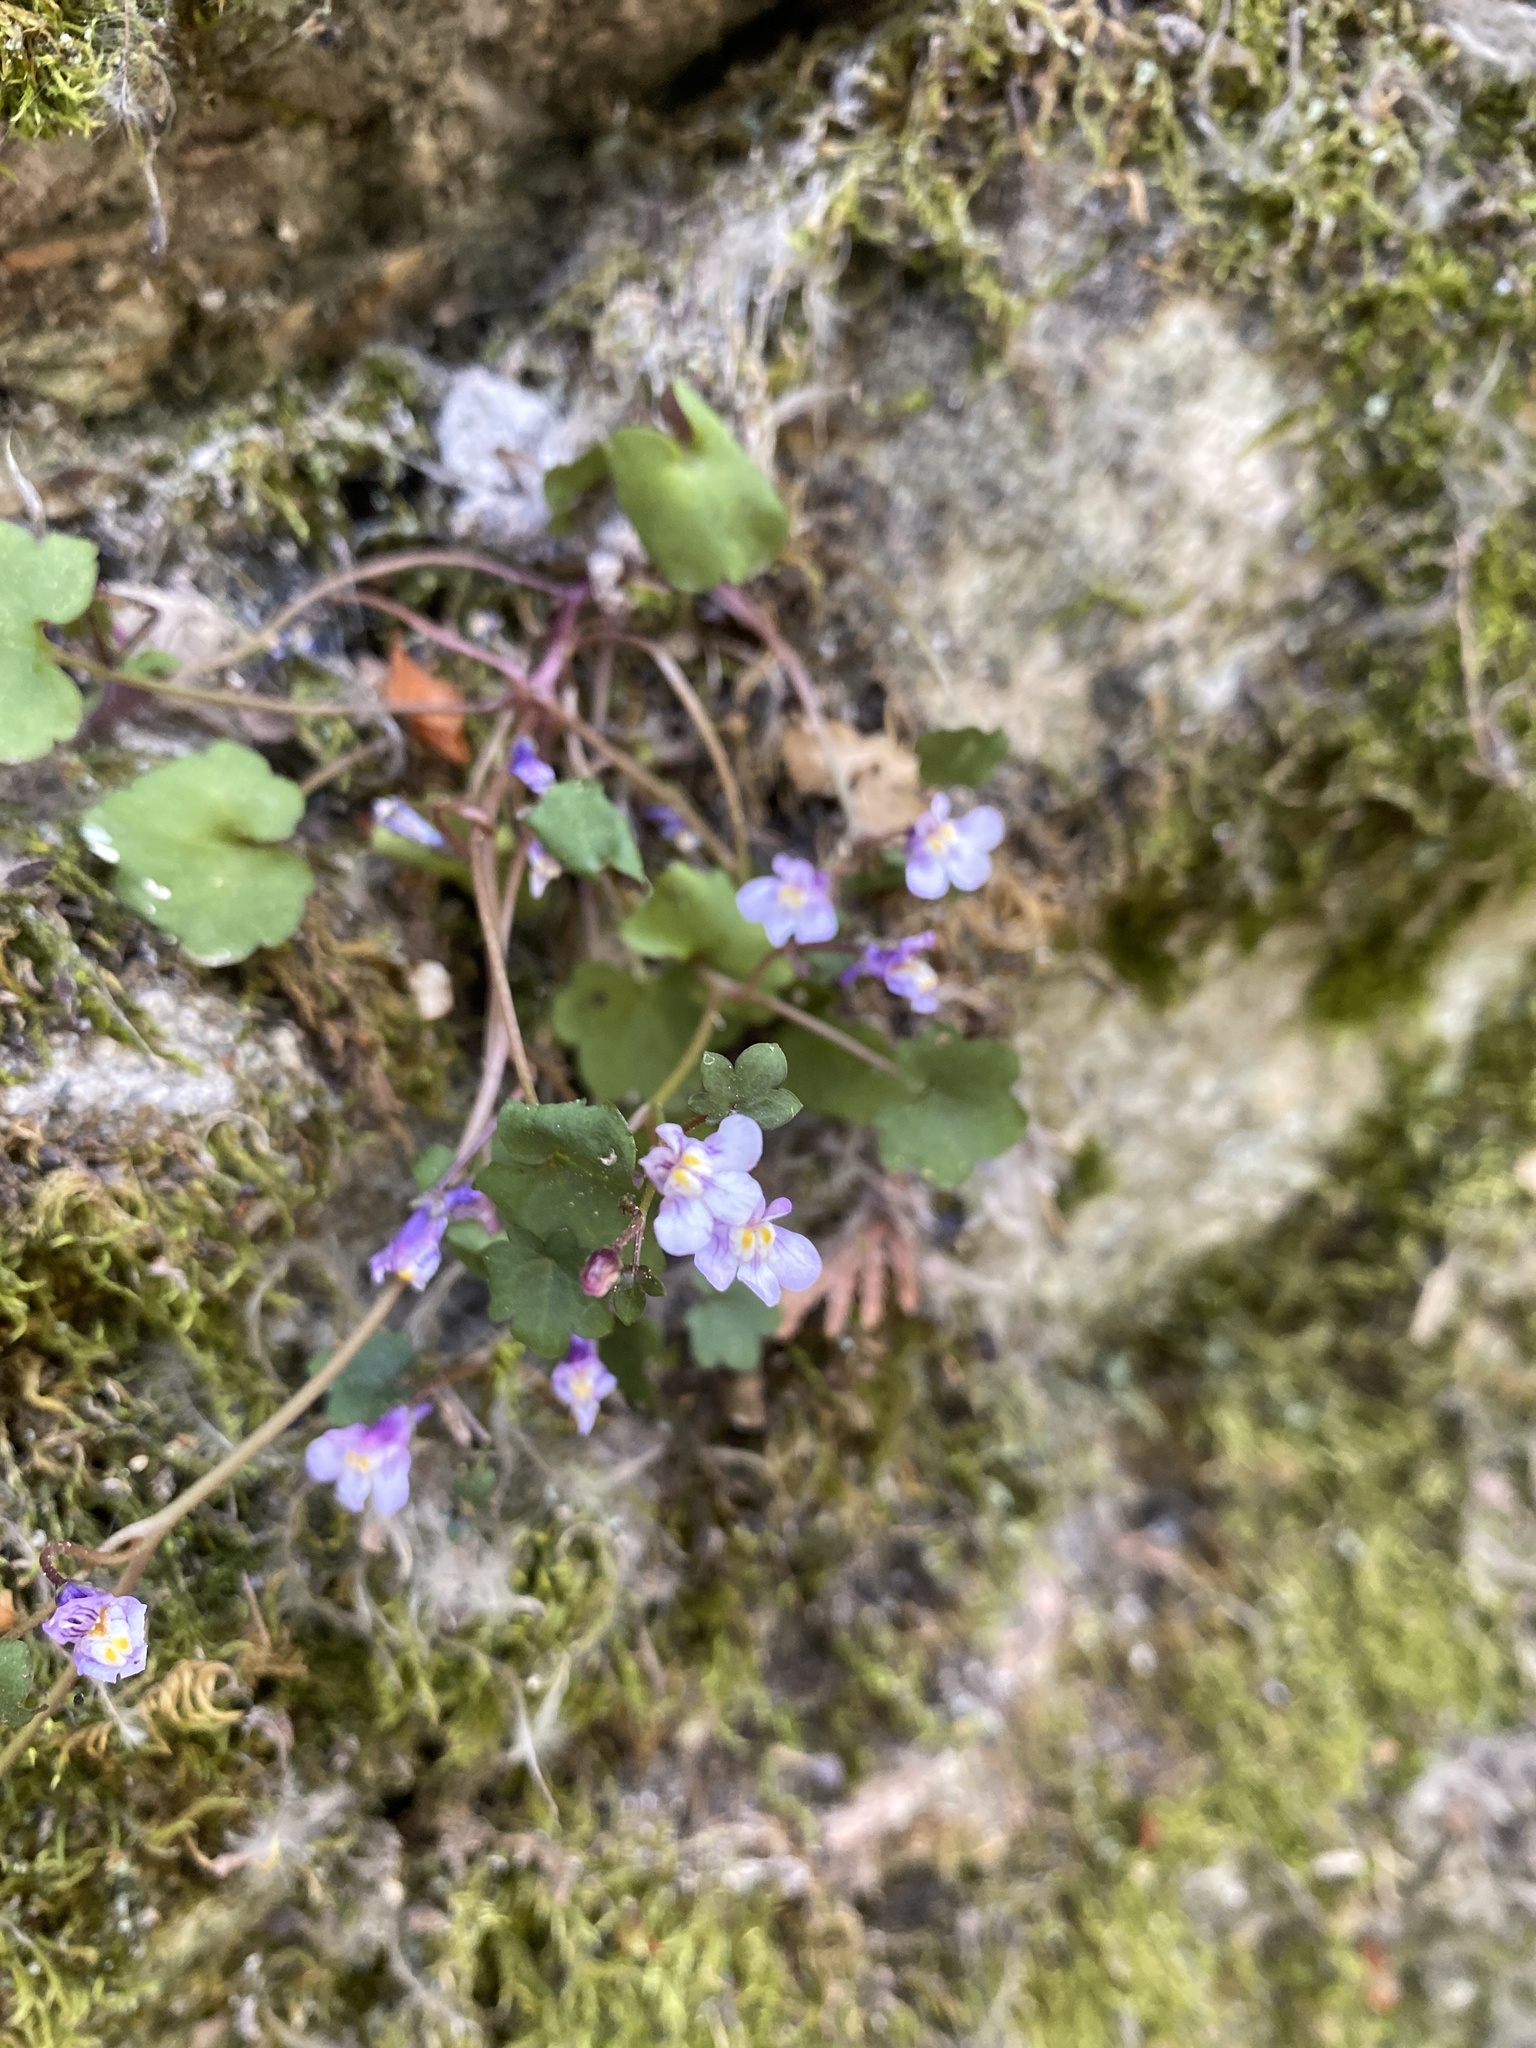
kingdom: Plantae
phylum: Tracheophyta
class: Magnoliopsida
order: Lamiales
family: Plantaginaceae
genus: Cymbalaria
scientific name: Cymbalaria muralis
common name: Ivy-leaved toadflax
